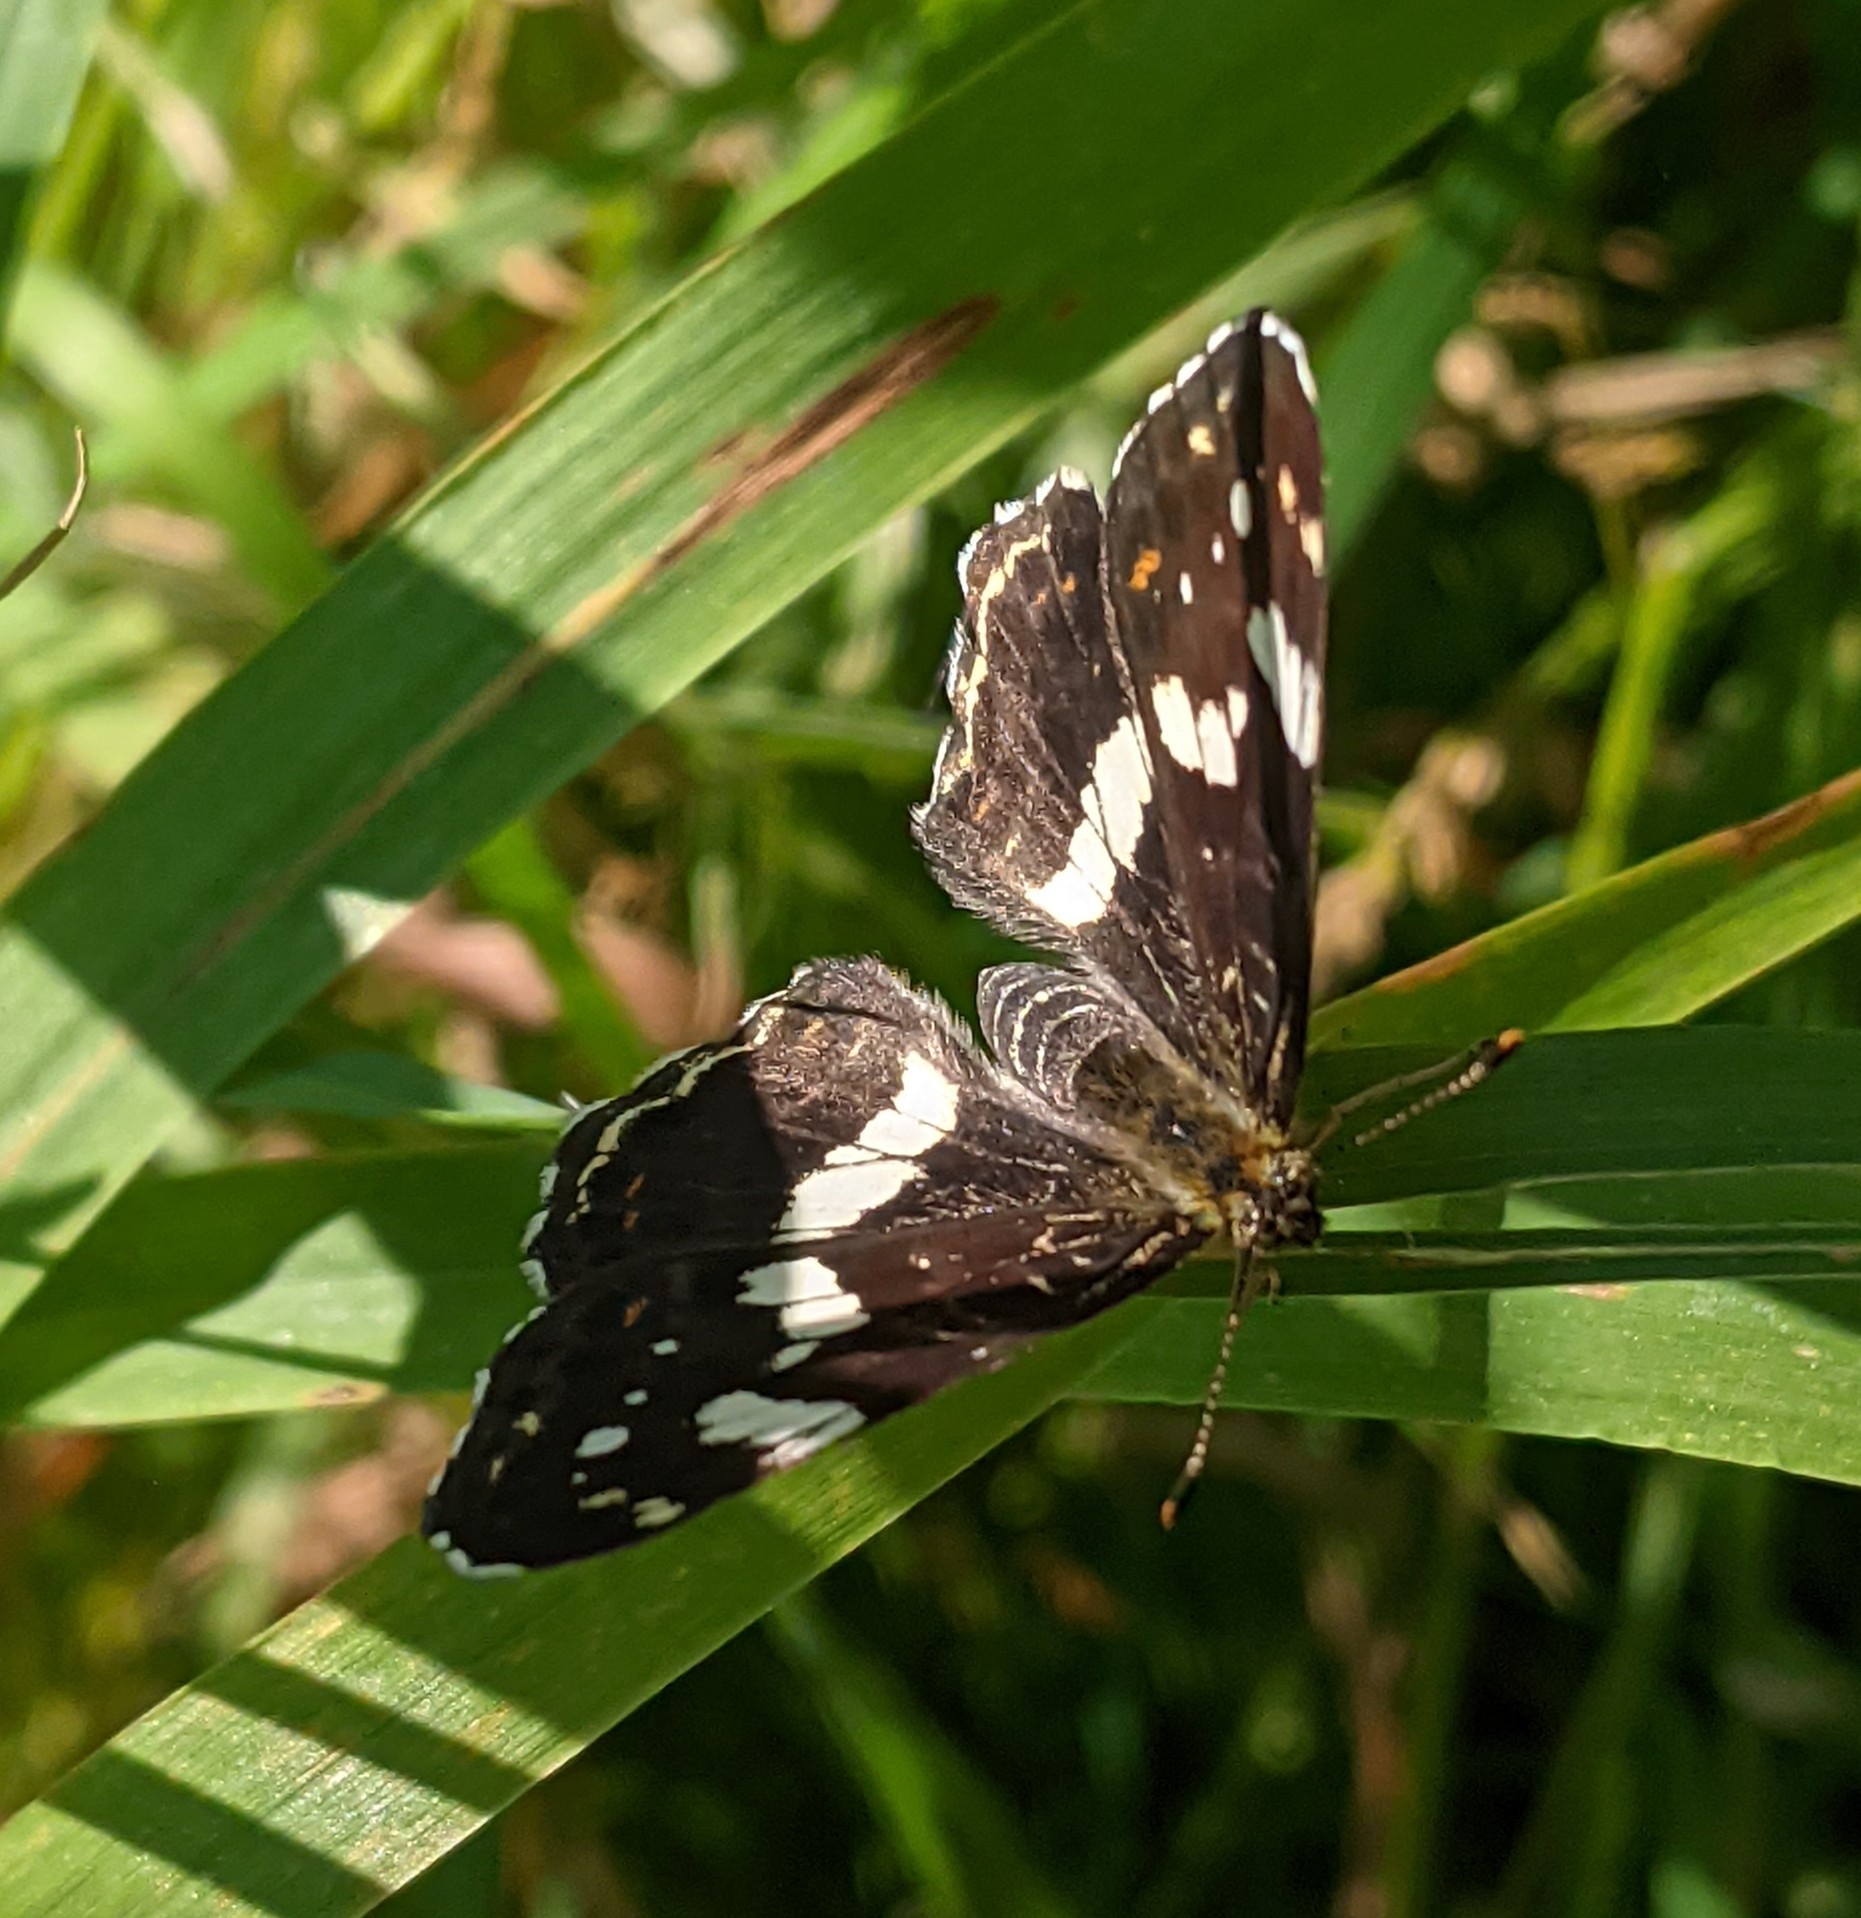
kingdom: Animalia
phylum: Arthropoda
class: Insecta
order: Lepidoptera
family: Nymphalidae
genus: Araschnia
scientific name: Araschnia levana
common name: Map butterfly
